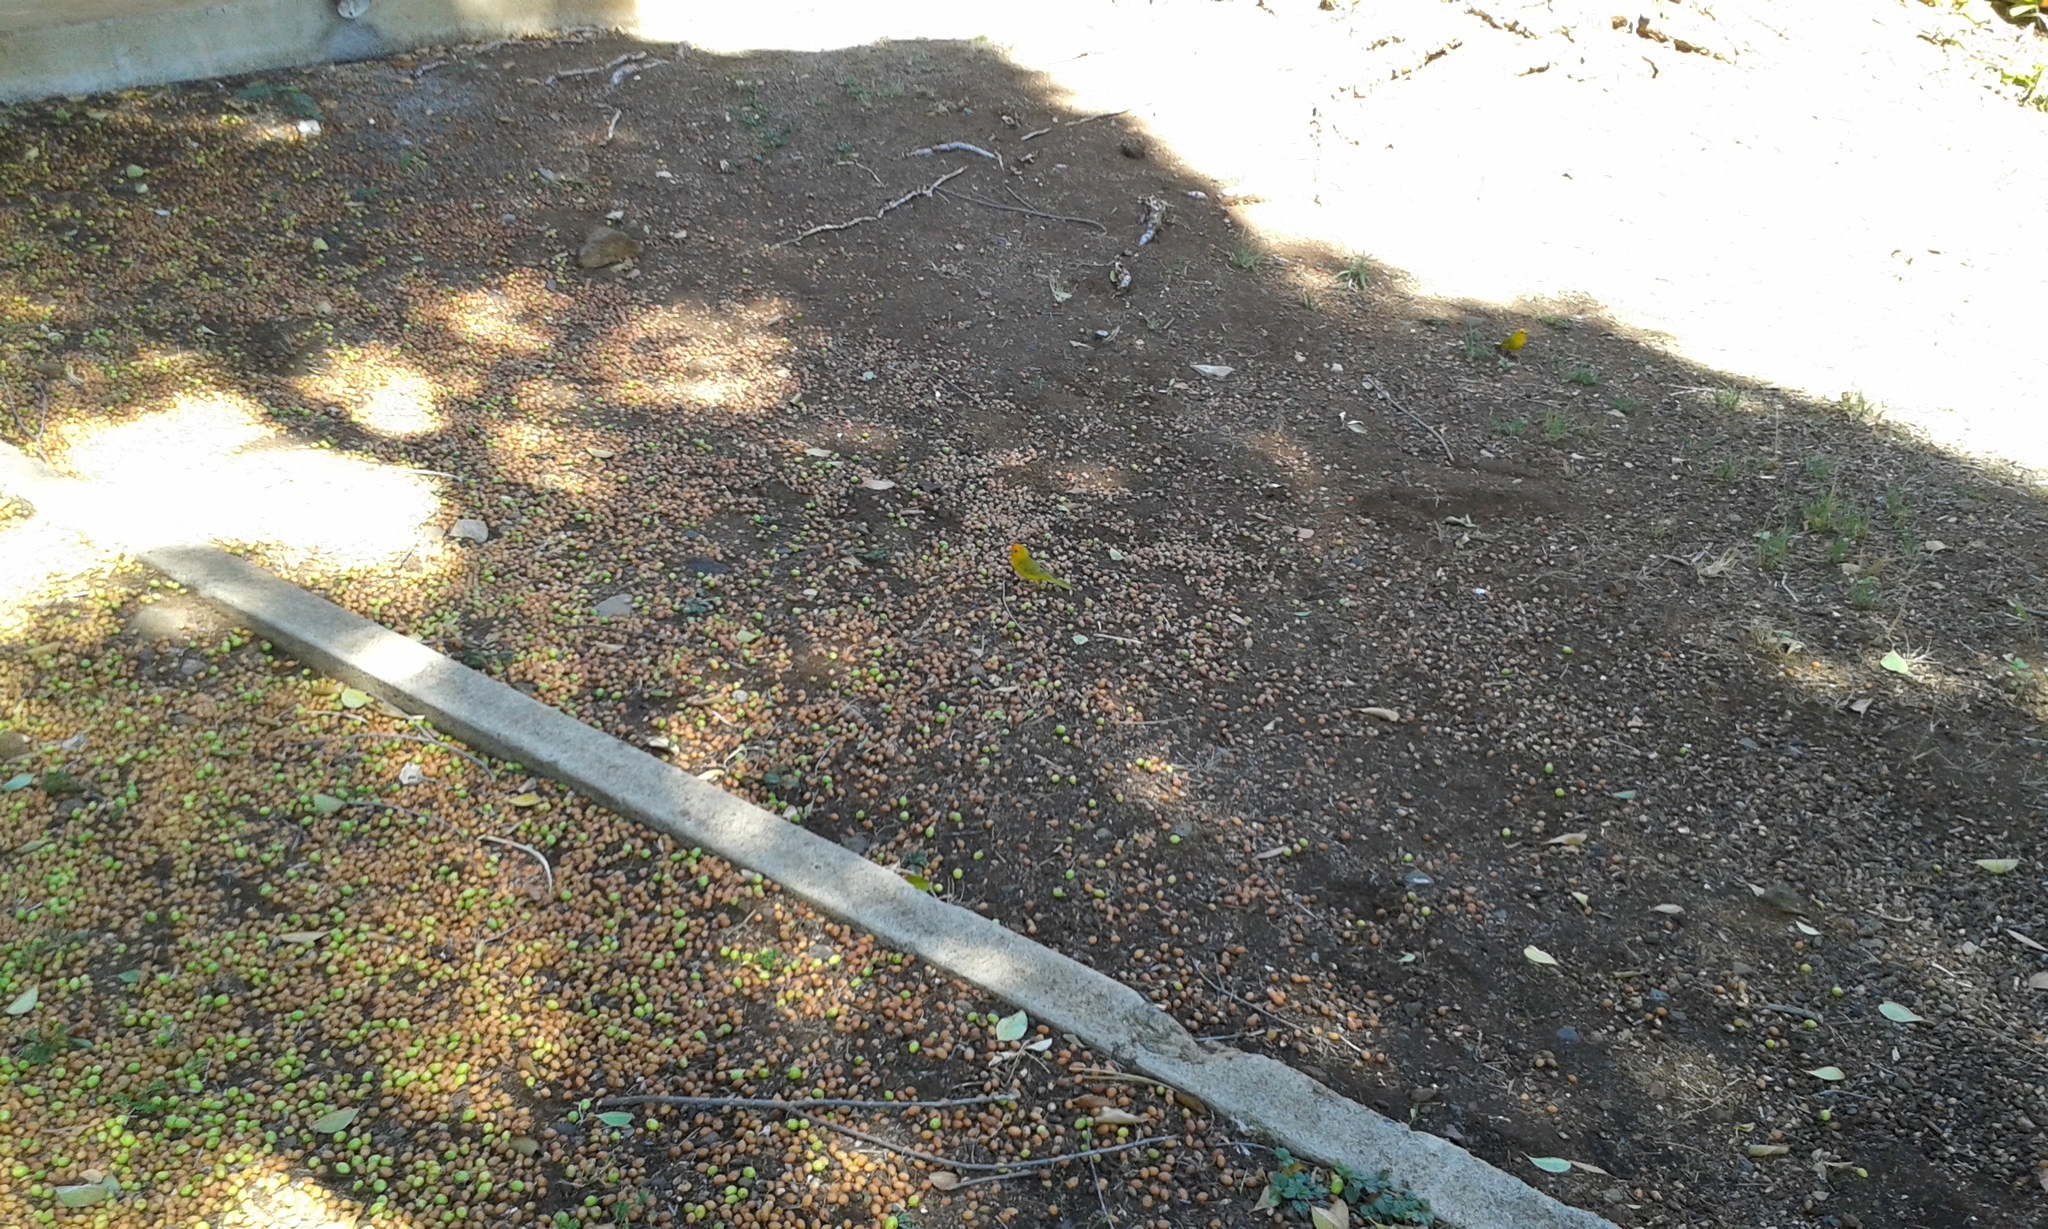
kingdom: Animalia
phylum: Chordata
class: Aves
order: Passeriformes
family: Thraupidae
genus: Sicalis
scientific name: Sicalis flaveola
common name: Saffron finch
